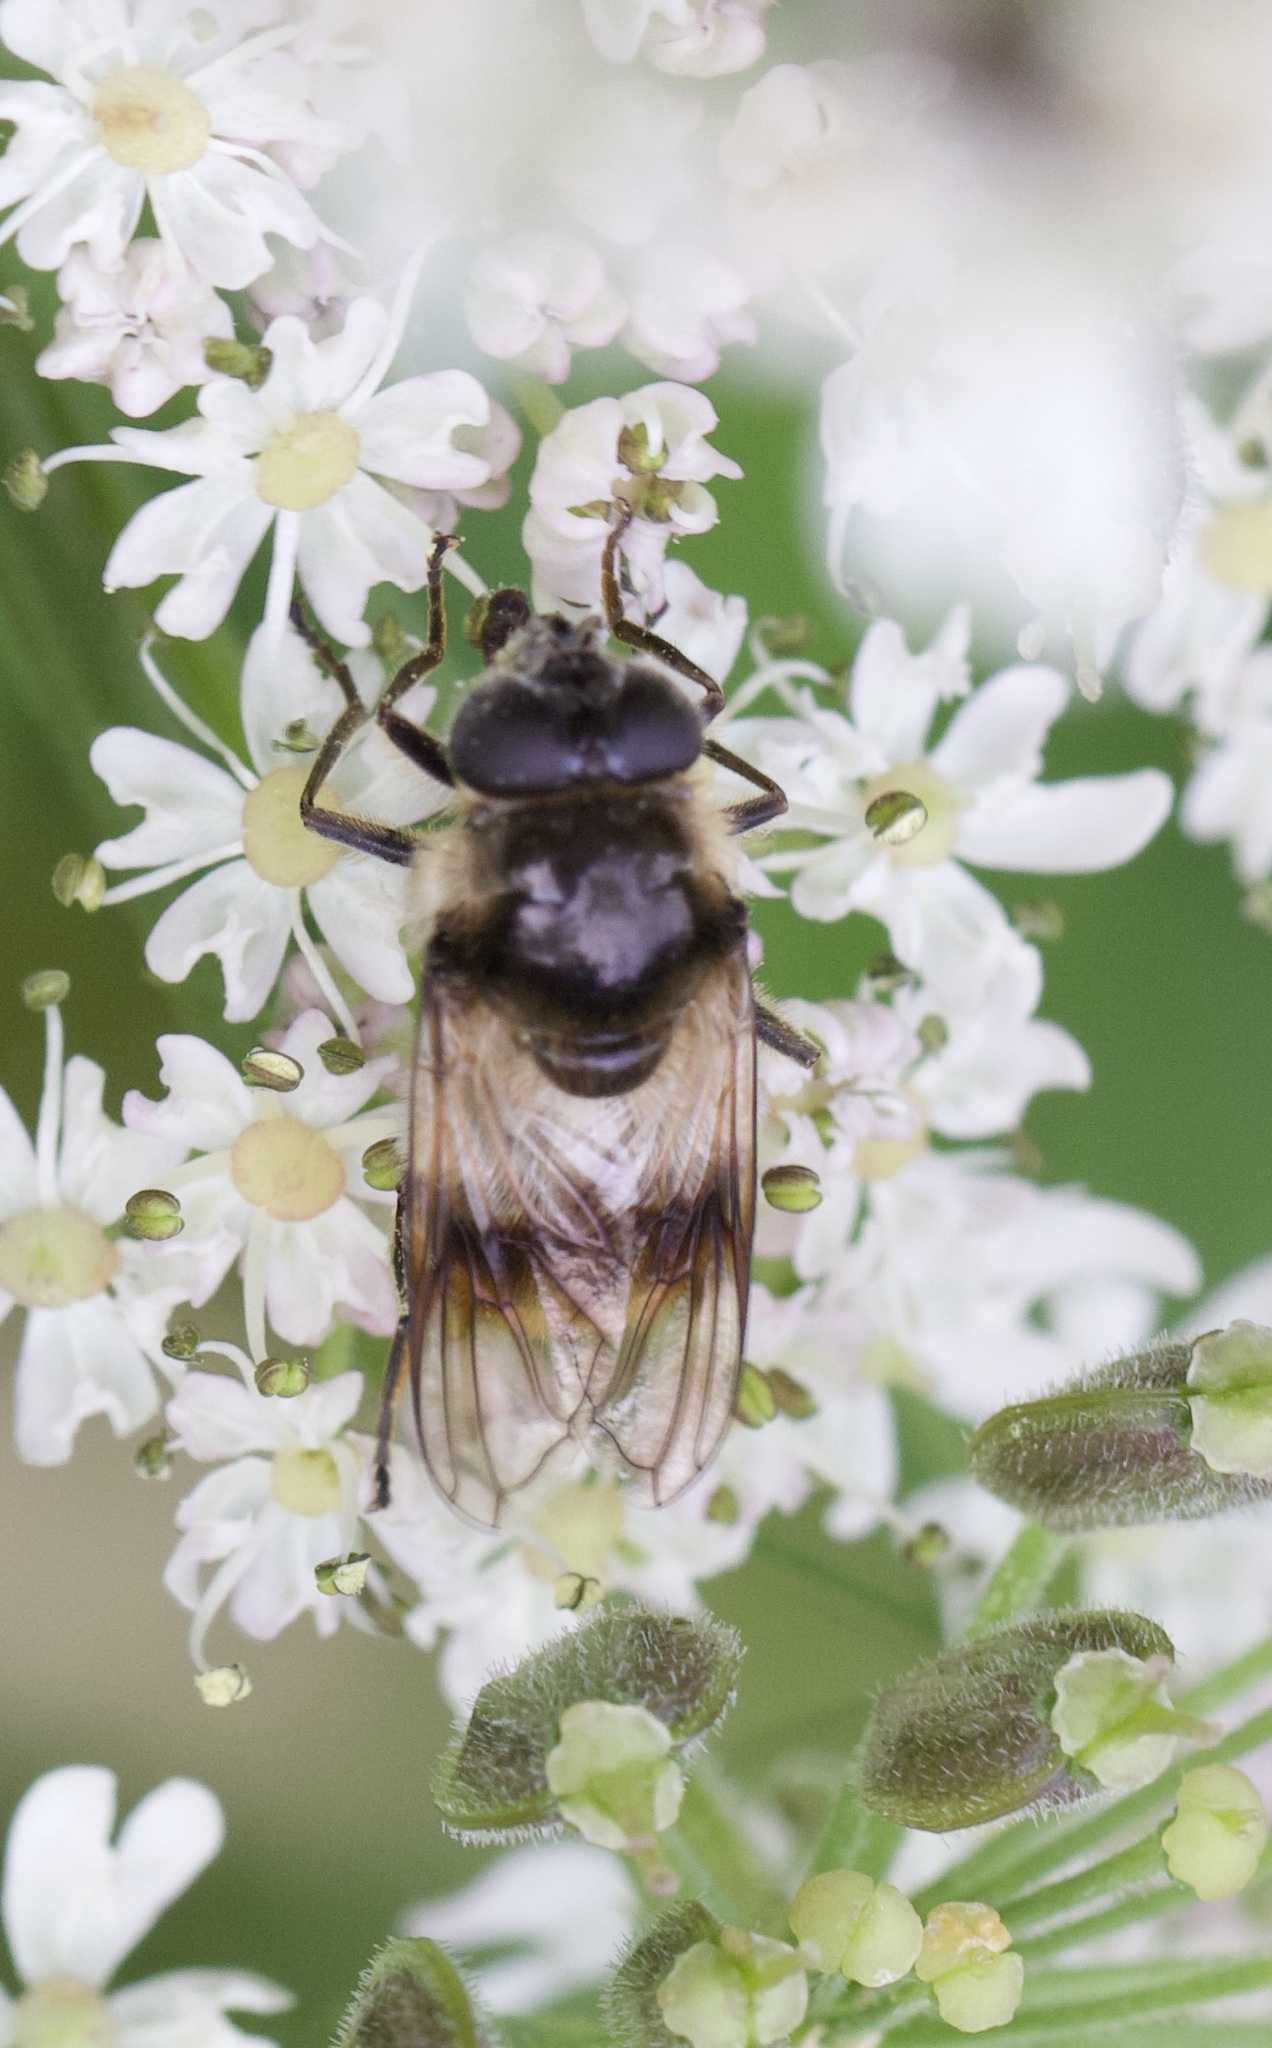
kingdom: Animalia
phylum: Arthropoda
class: Insecta
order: Diptera
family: Syrphidae
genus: Cheilosia
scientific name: Cheilosia illustrata
